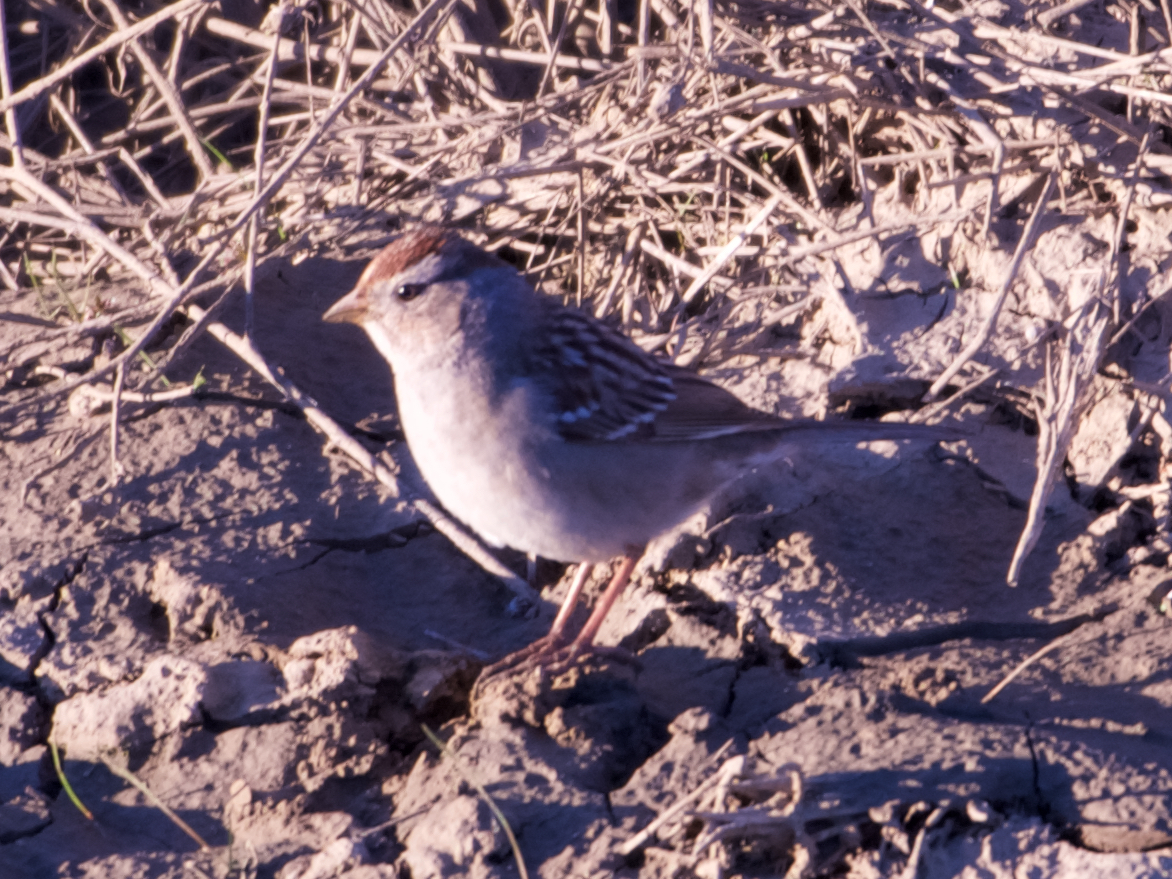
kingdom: Animalia
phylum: Chordata
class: Aves
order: Passeriformes
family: Passerellidae
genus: Zonotrichia
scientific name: Zonotrichia leucophrys
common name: White-crowned sparrow
